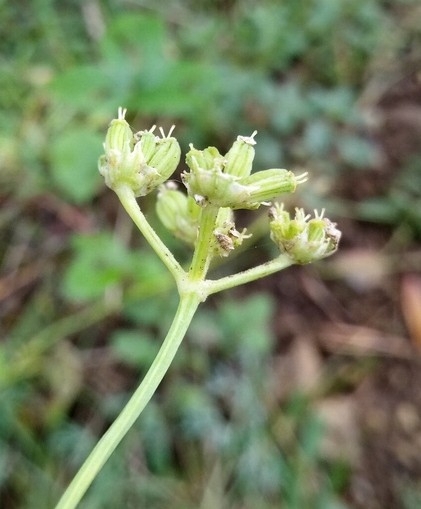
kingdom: Plantae
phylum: Tracheophyta
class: Magnoliopsida
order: Apiales
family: Apiaceae
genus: Hippomarathrum
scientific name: Hippomarathrum
